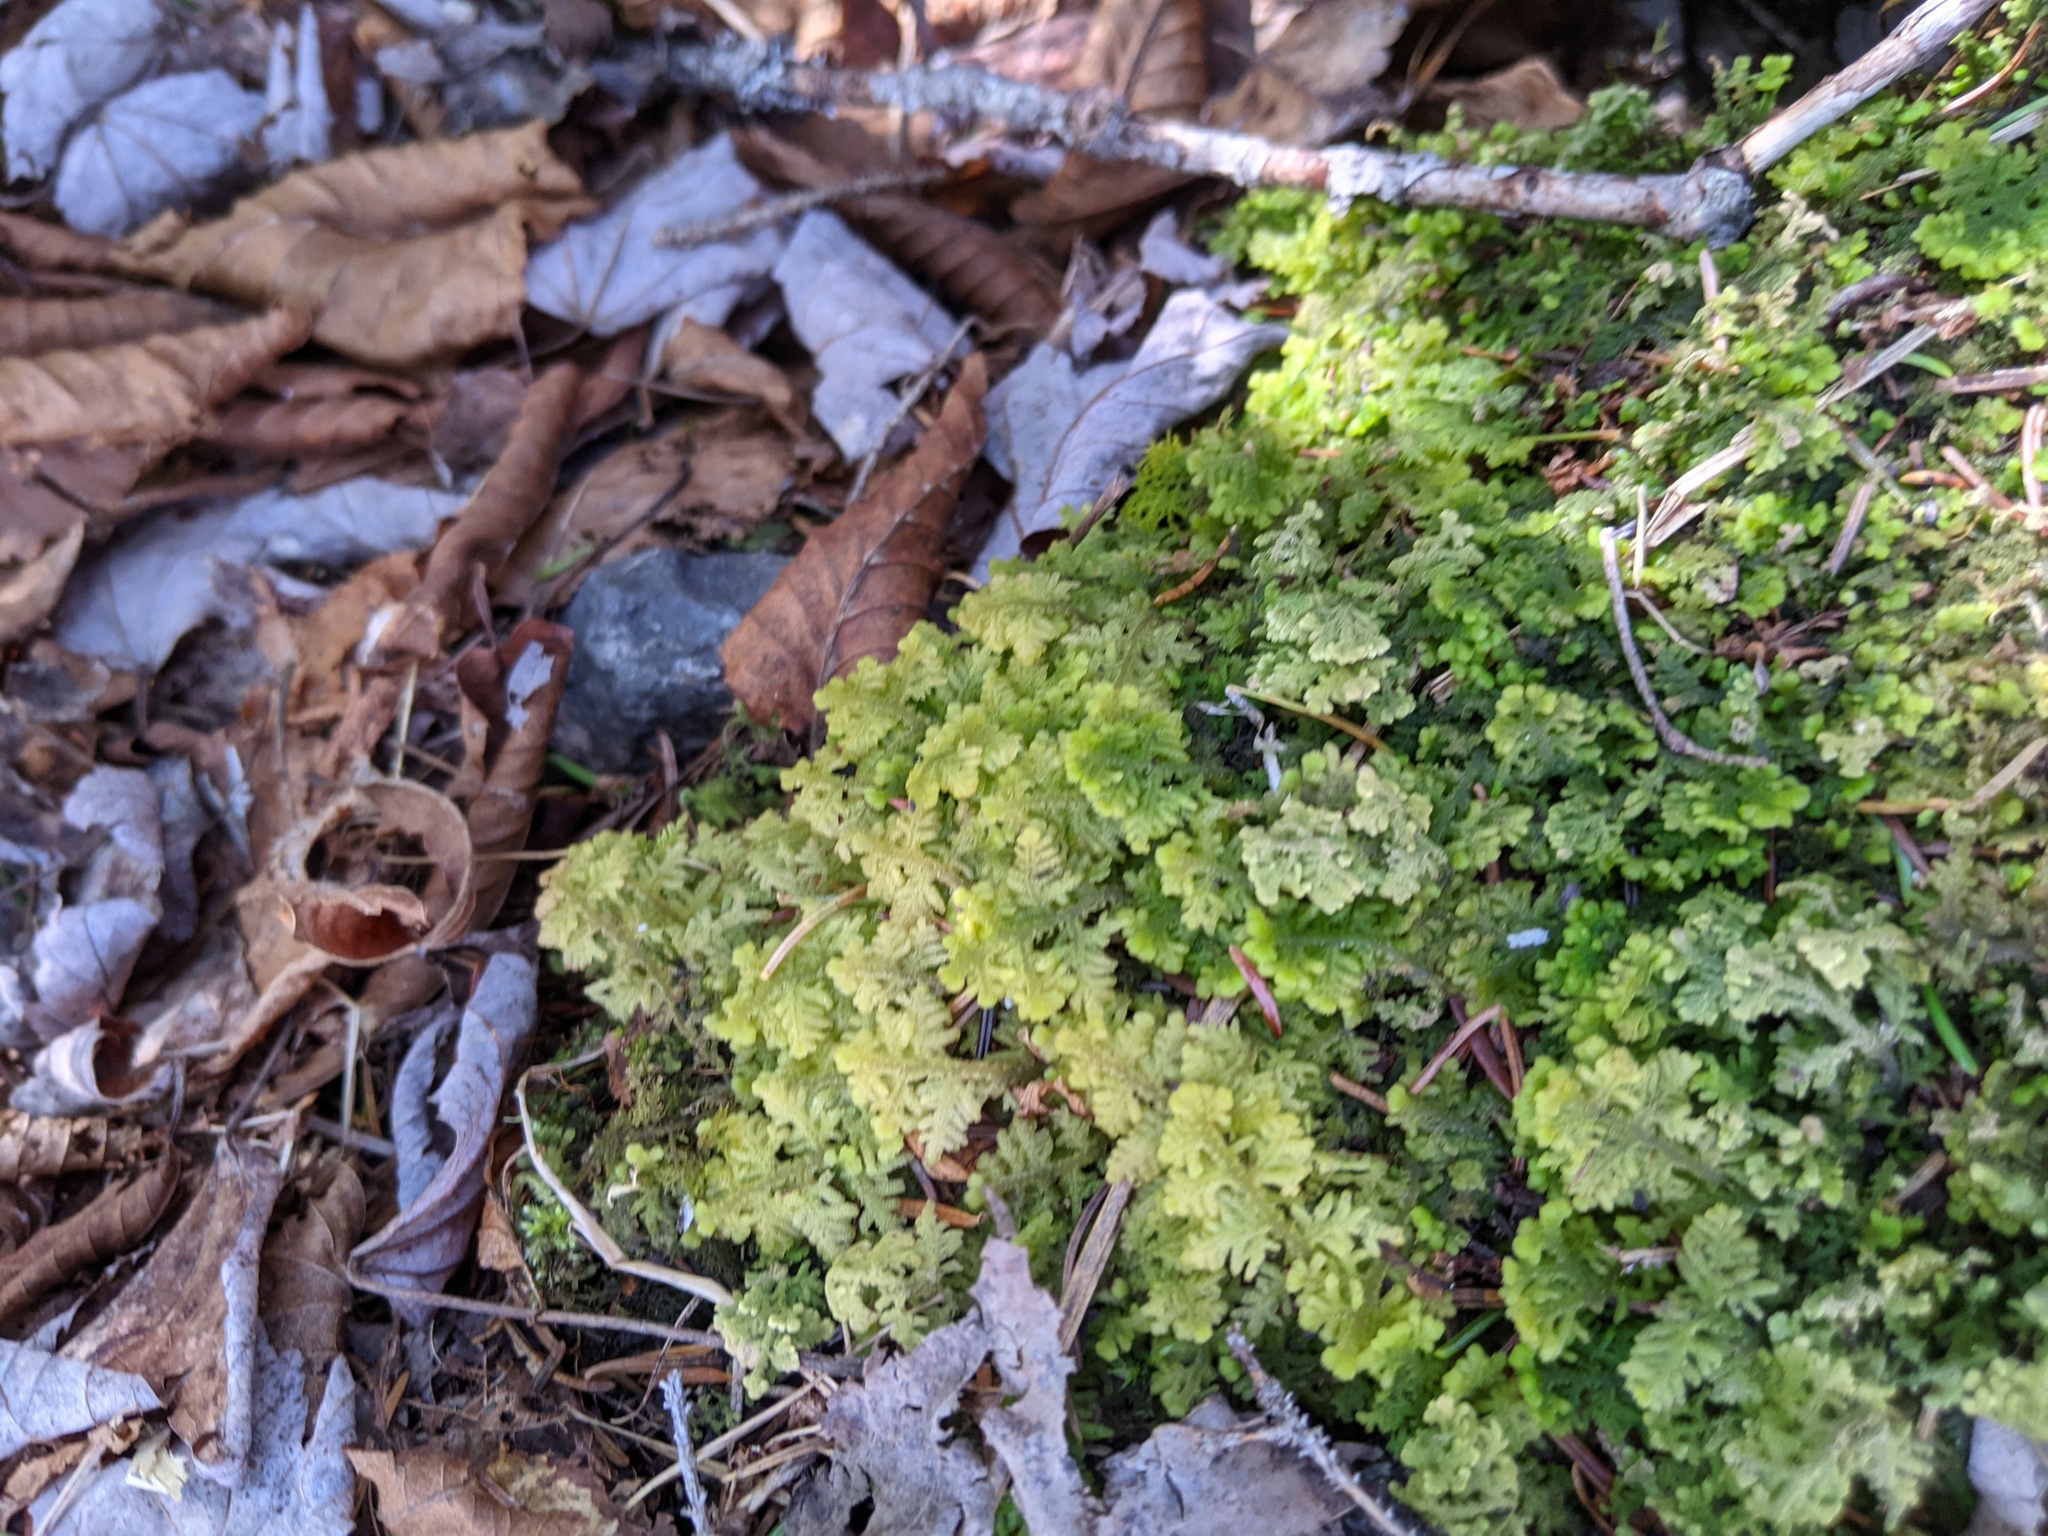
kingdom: Plantae
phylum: Marchantiophyta
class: Jungermanniopsida
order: Jungermanniales
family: Trichocoleaceae
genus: Trichocolea
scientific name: Trichocolea tomentella
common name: Woolly liverwort
